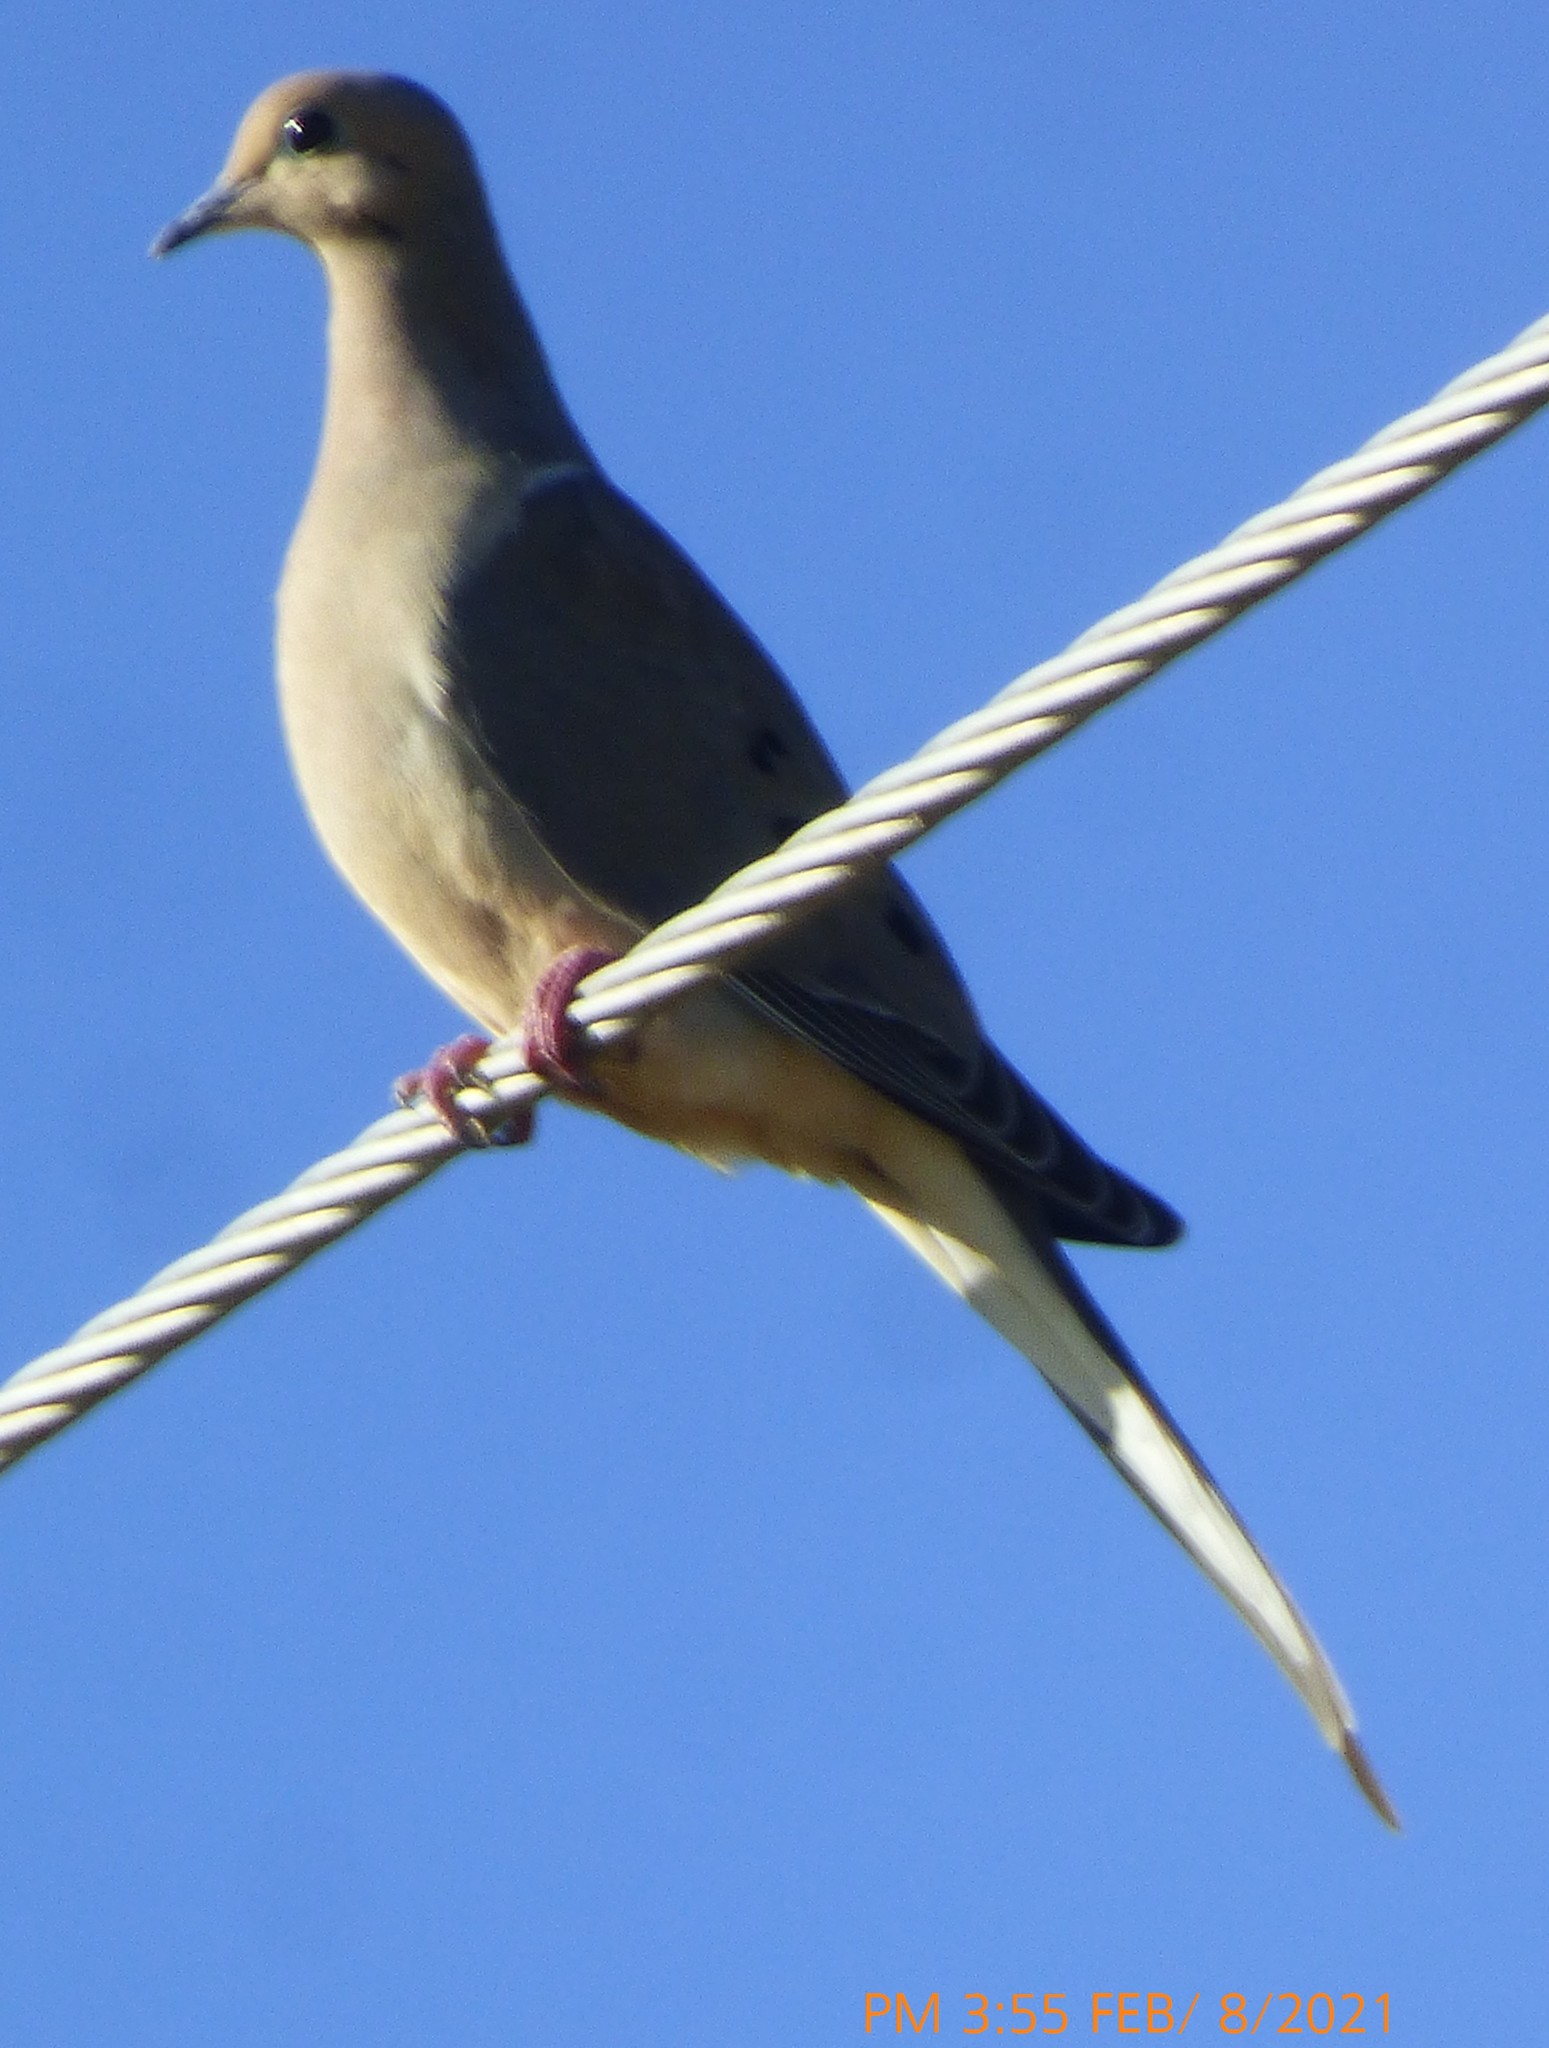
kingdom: Animalia
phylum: Chordata
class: Aves
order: Columbiformes
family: Columbidae
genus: Zenaida
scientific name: Zenaida macroura
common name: Mourning dove
